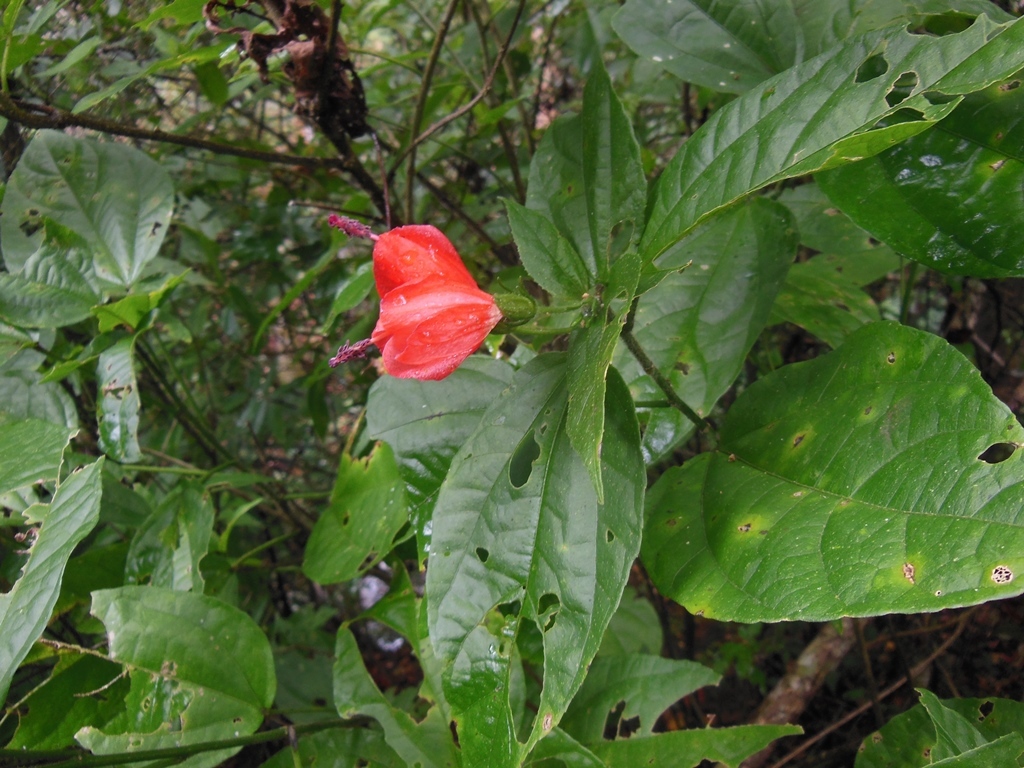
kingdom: Plantae
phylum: Tracheophyta
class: Magnoliopsida
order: Malvales
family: Malvaceae
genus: Malvaviscus
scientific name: Malvaviscus arboreus
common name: Wax mallow
